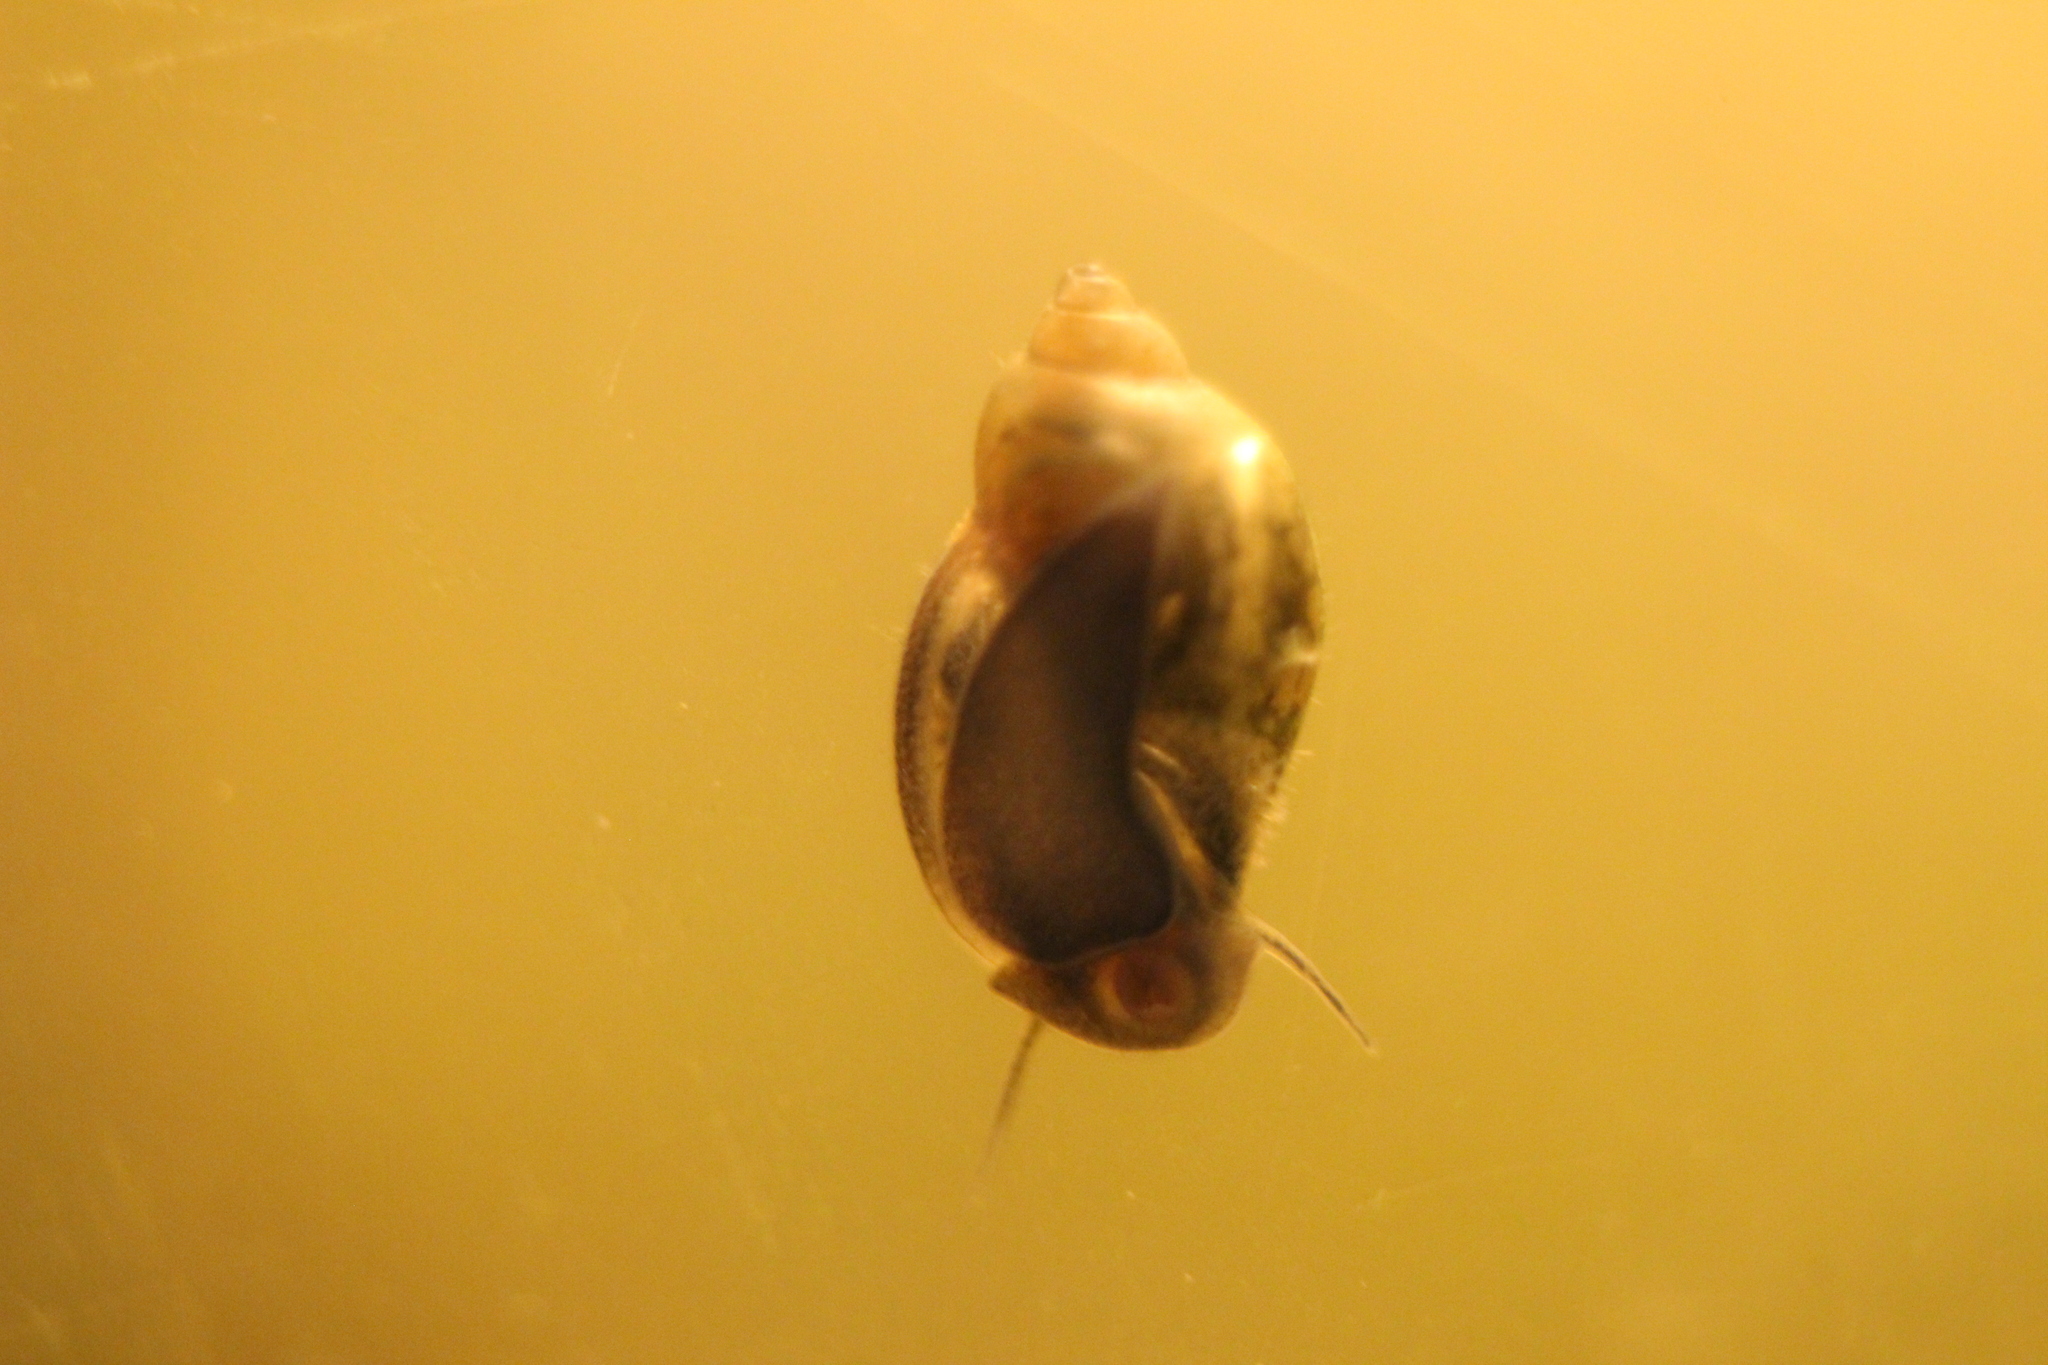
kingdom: Animalia
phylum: Mollusca
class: Gastropoda
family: Physidae
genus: Physella
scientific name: Physella acuta
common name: European physa
